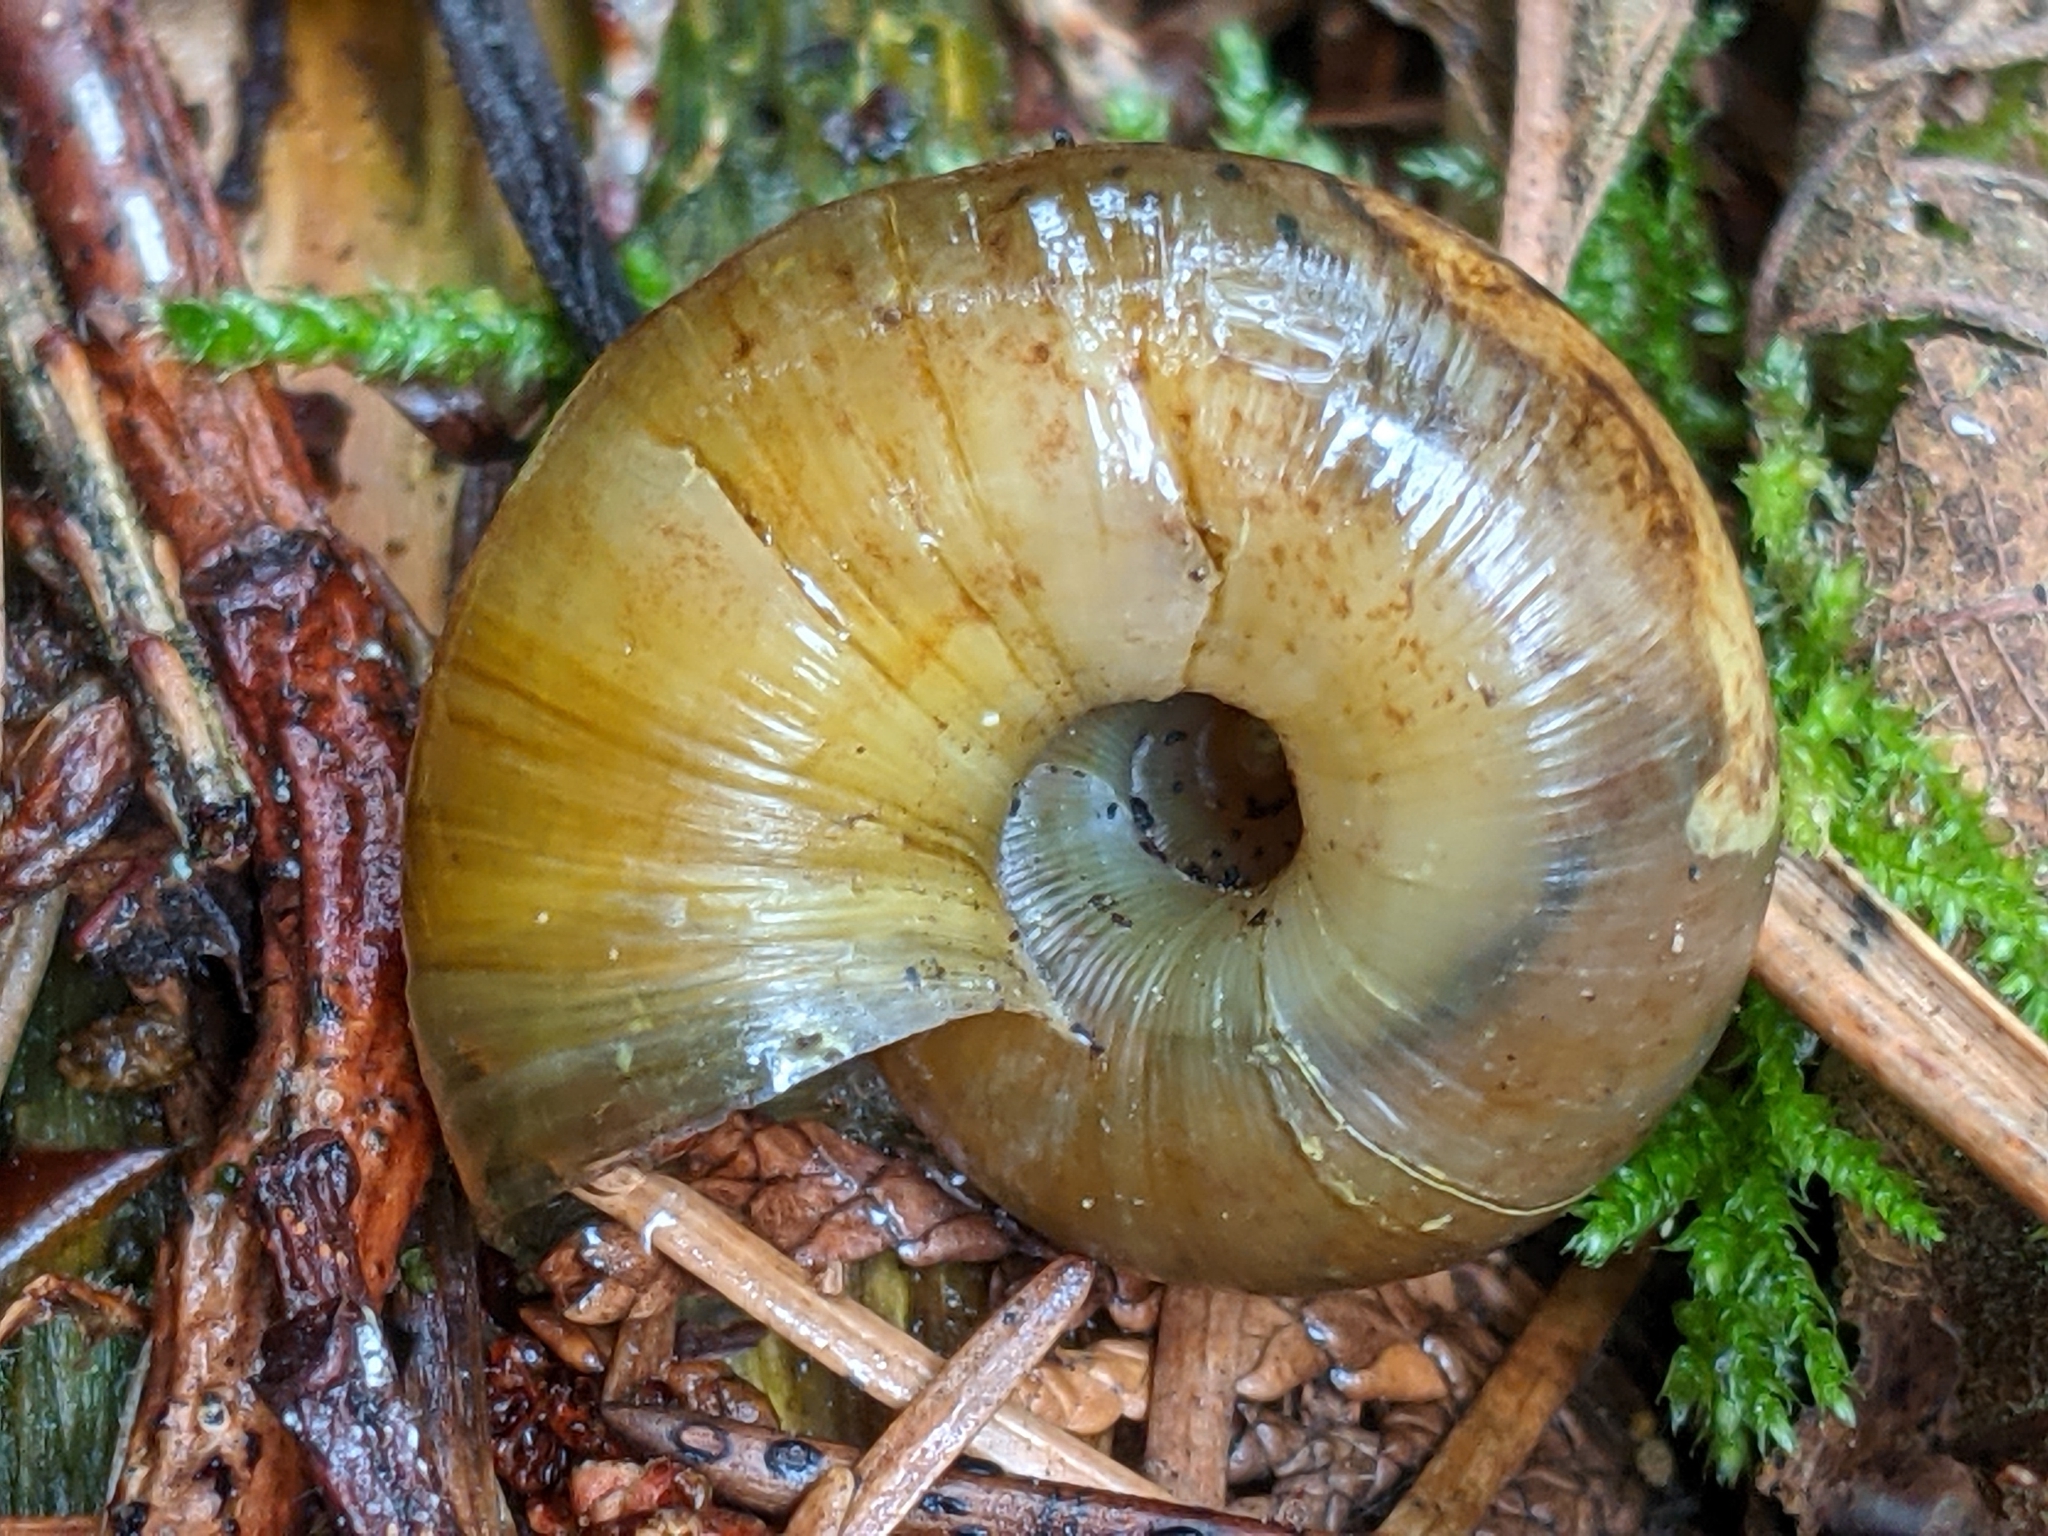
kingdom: Animalia
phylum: Mollusca
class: Gastropoda
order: Stylommatophora
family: Haplotrematidae
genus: Haplotrema
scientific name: Haplotrema vancouverense
